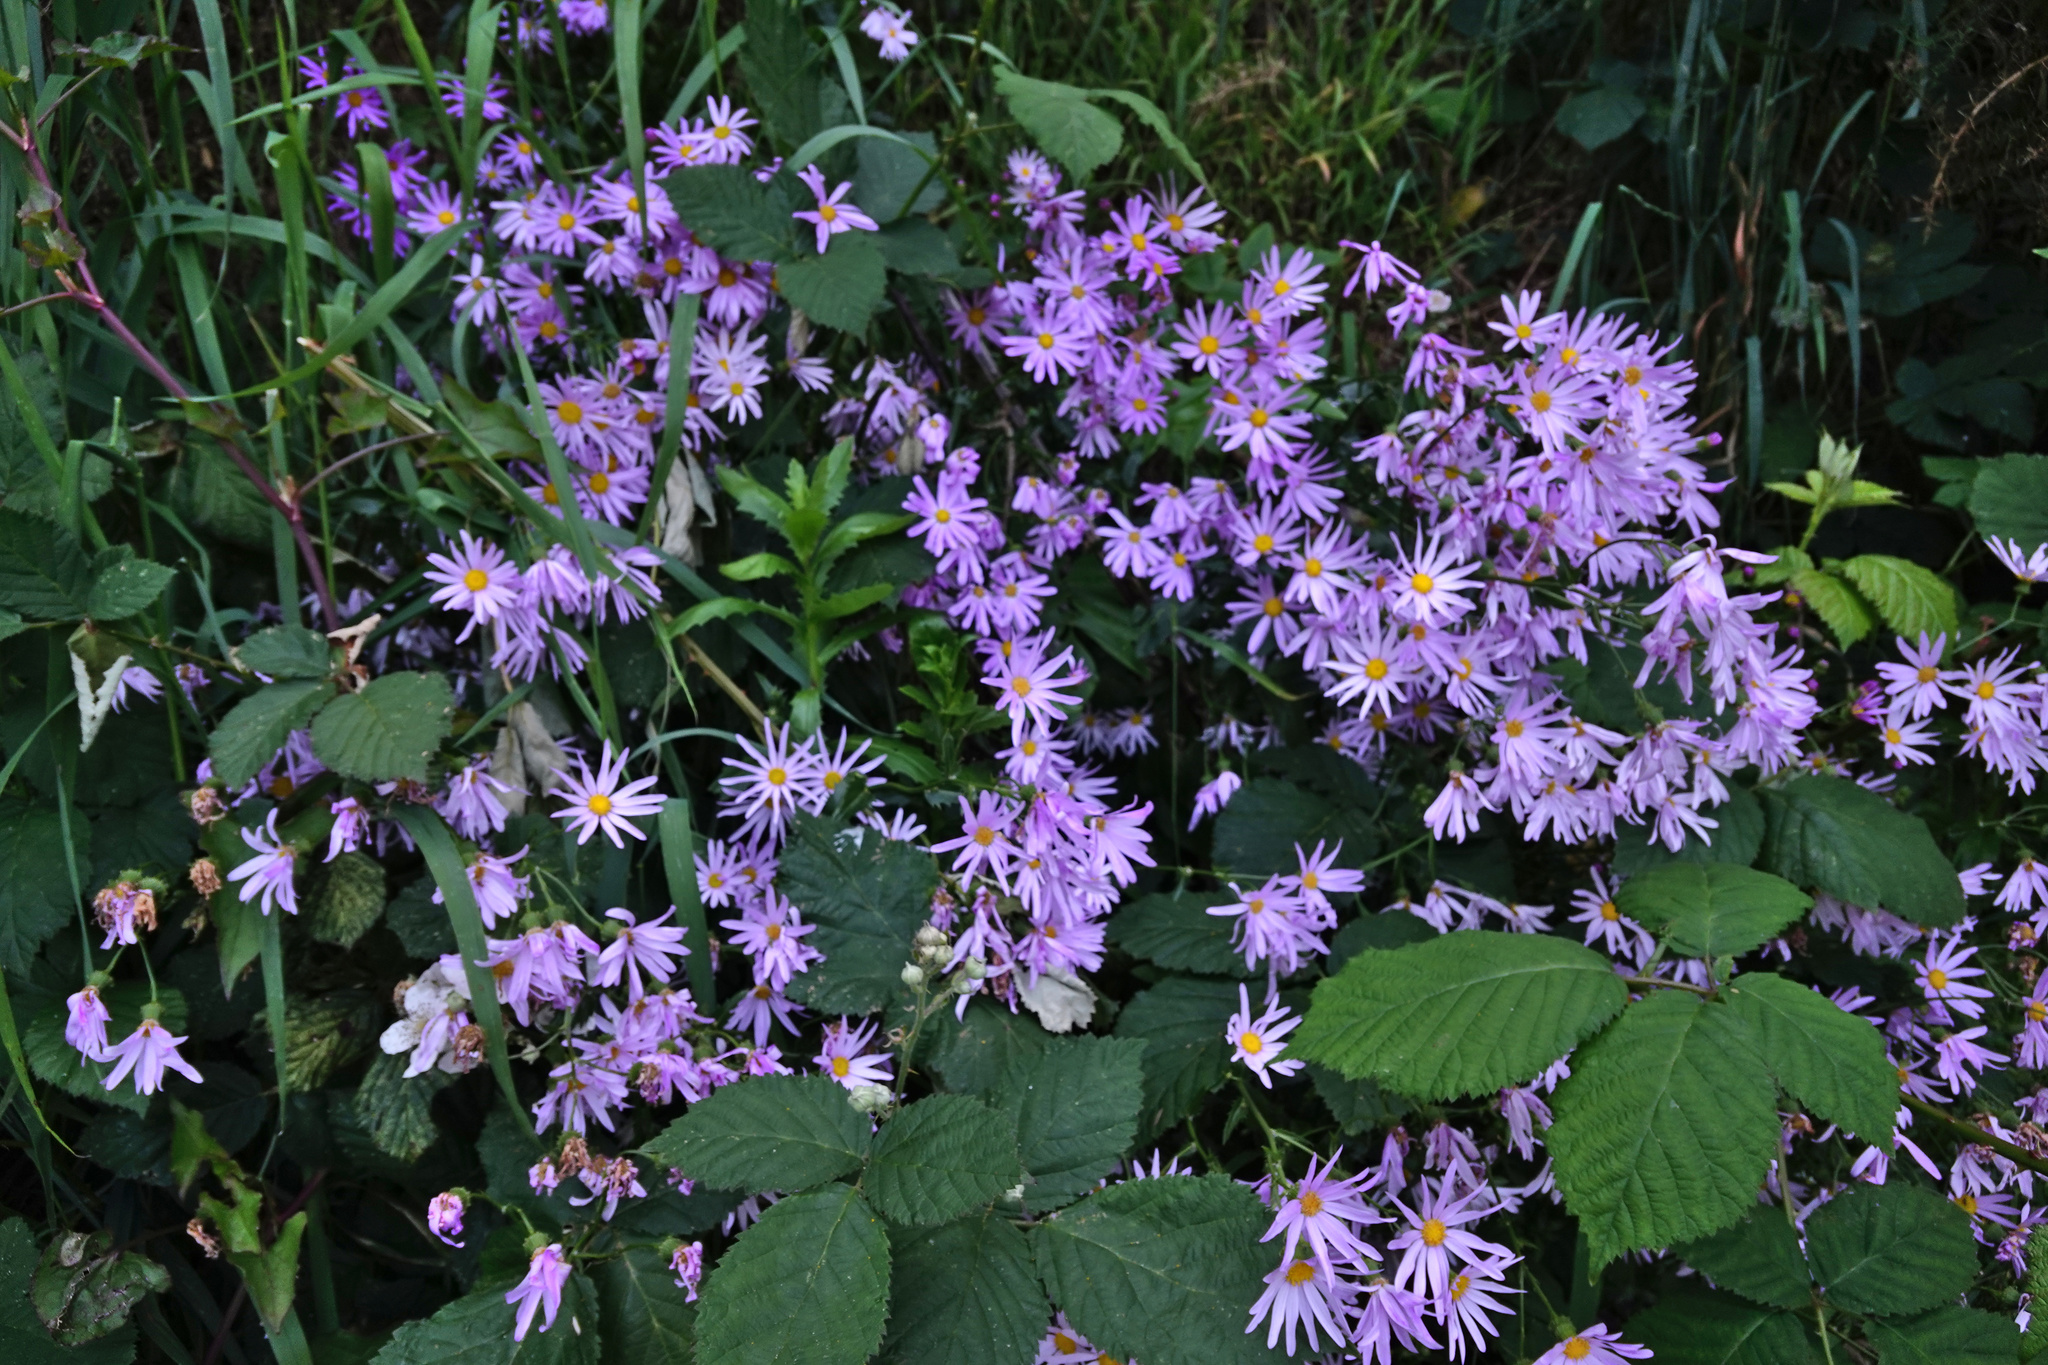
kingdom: Plantae
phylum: Tracheophyta
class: Magnoliopsida
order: Asterales
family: Asteraceae
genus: Senecio
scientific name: Senecio glastifolius
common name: Woad-leaved ragwort
